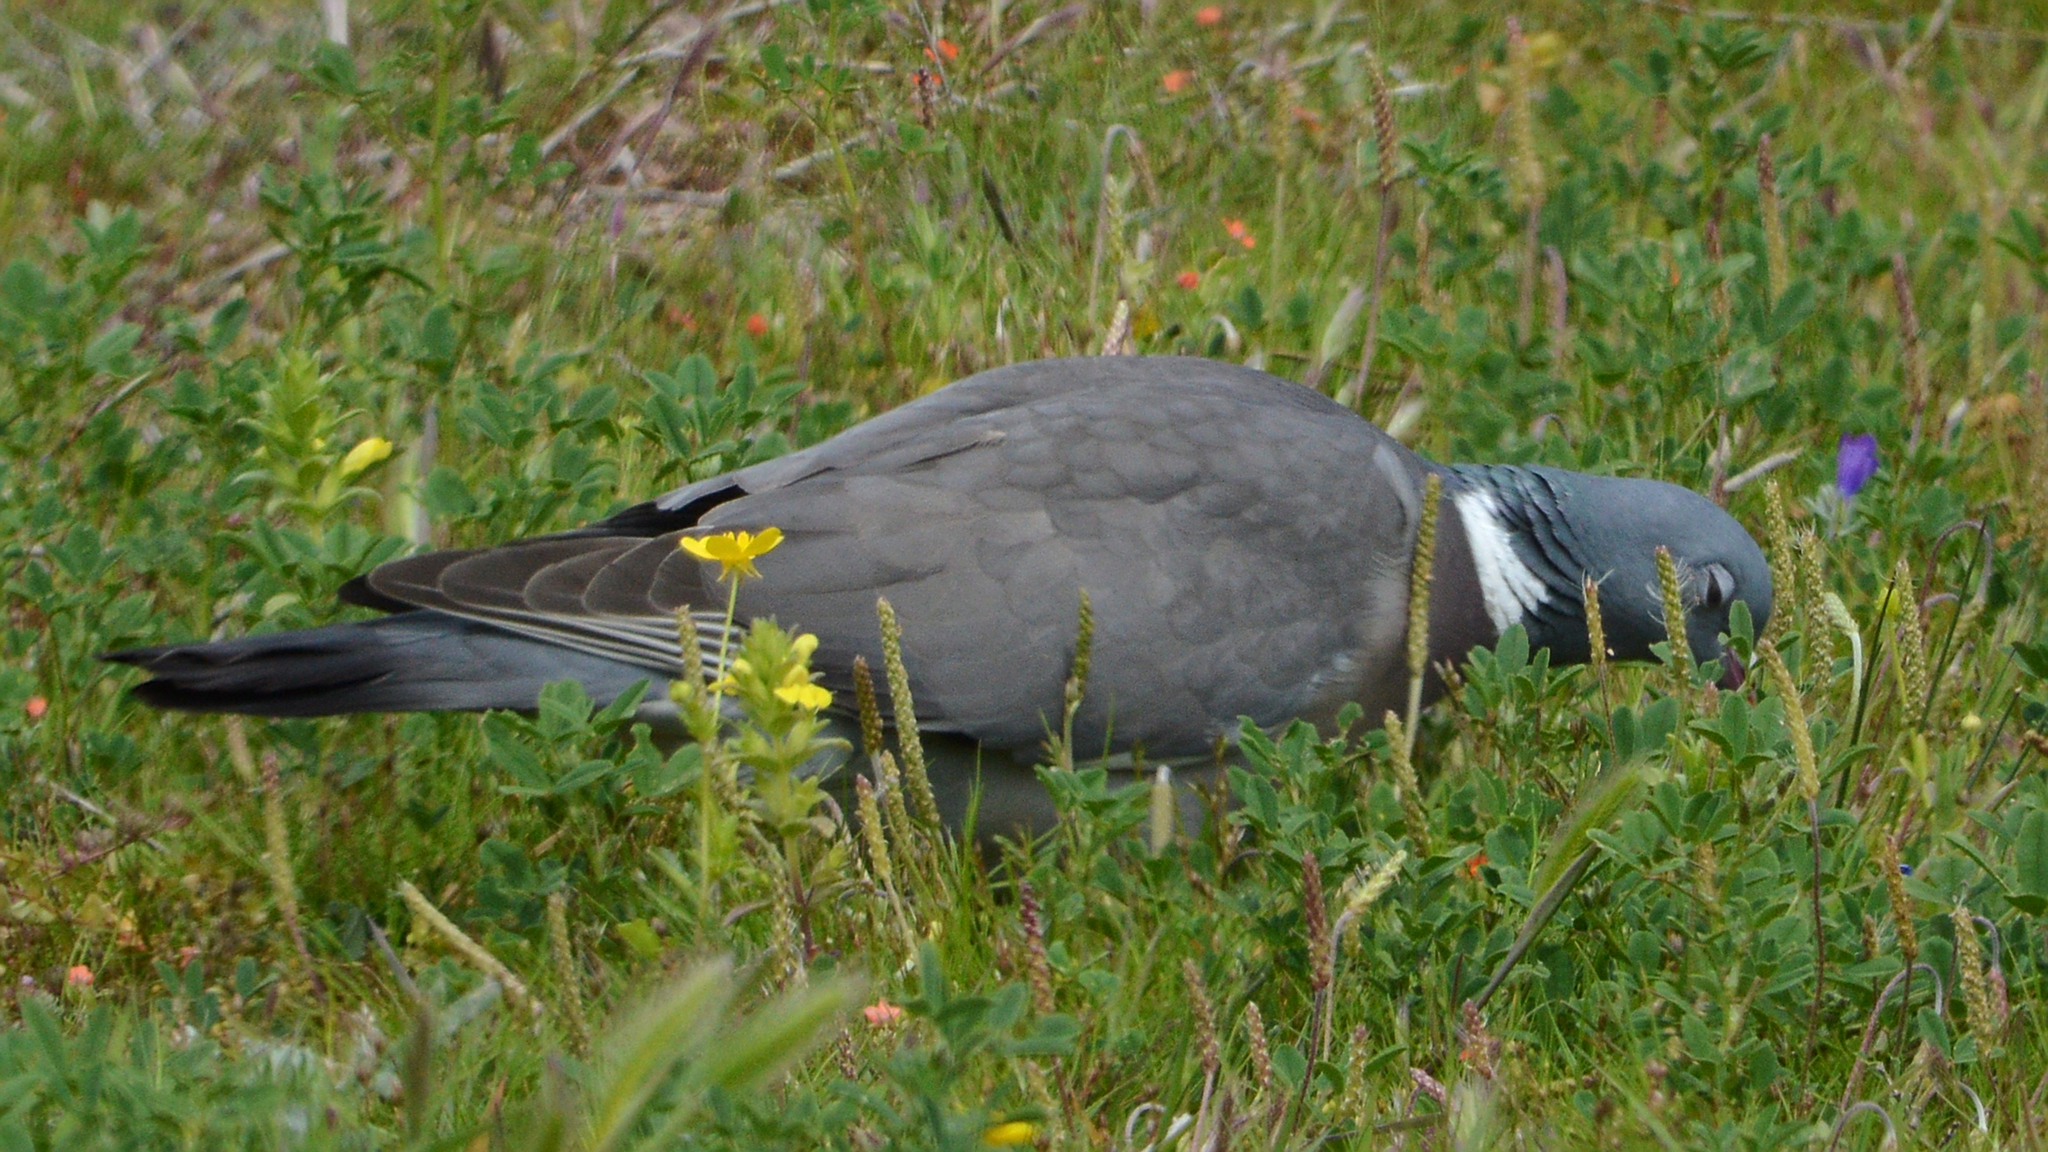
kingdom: Animalia
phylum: Chordata
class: Aves
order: Columbiformes
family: Columbidae
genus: Columba
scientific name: Columba palumbus
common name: Common wood pigeon
